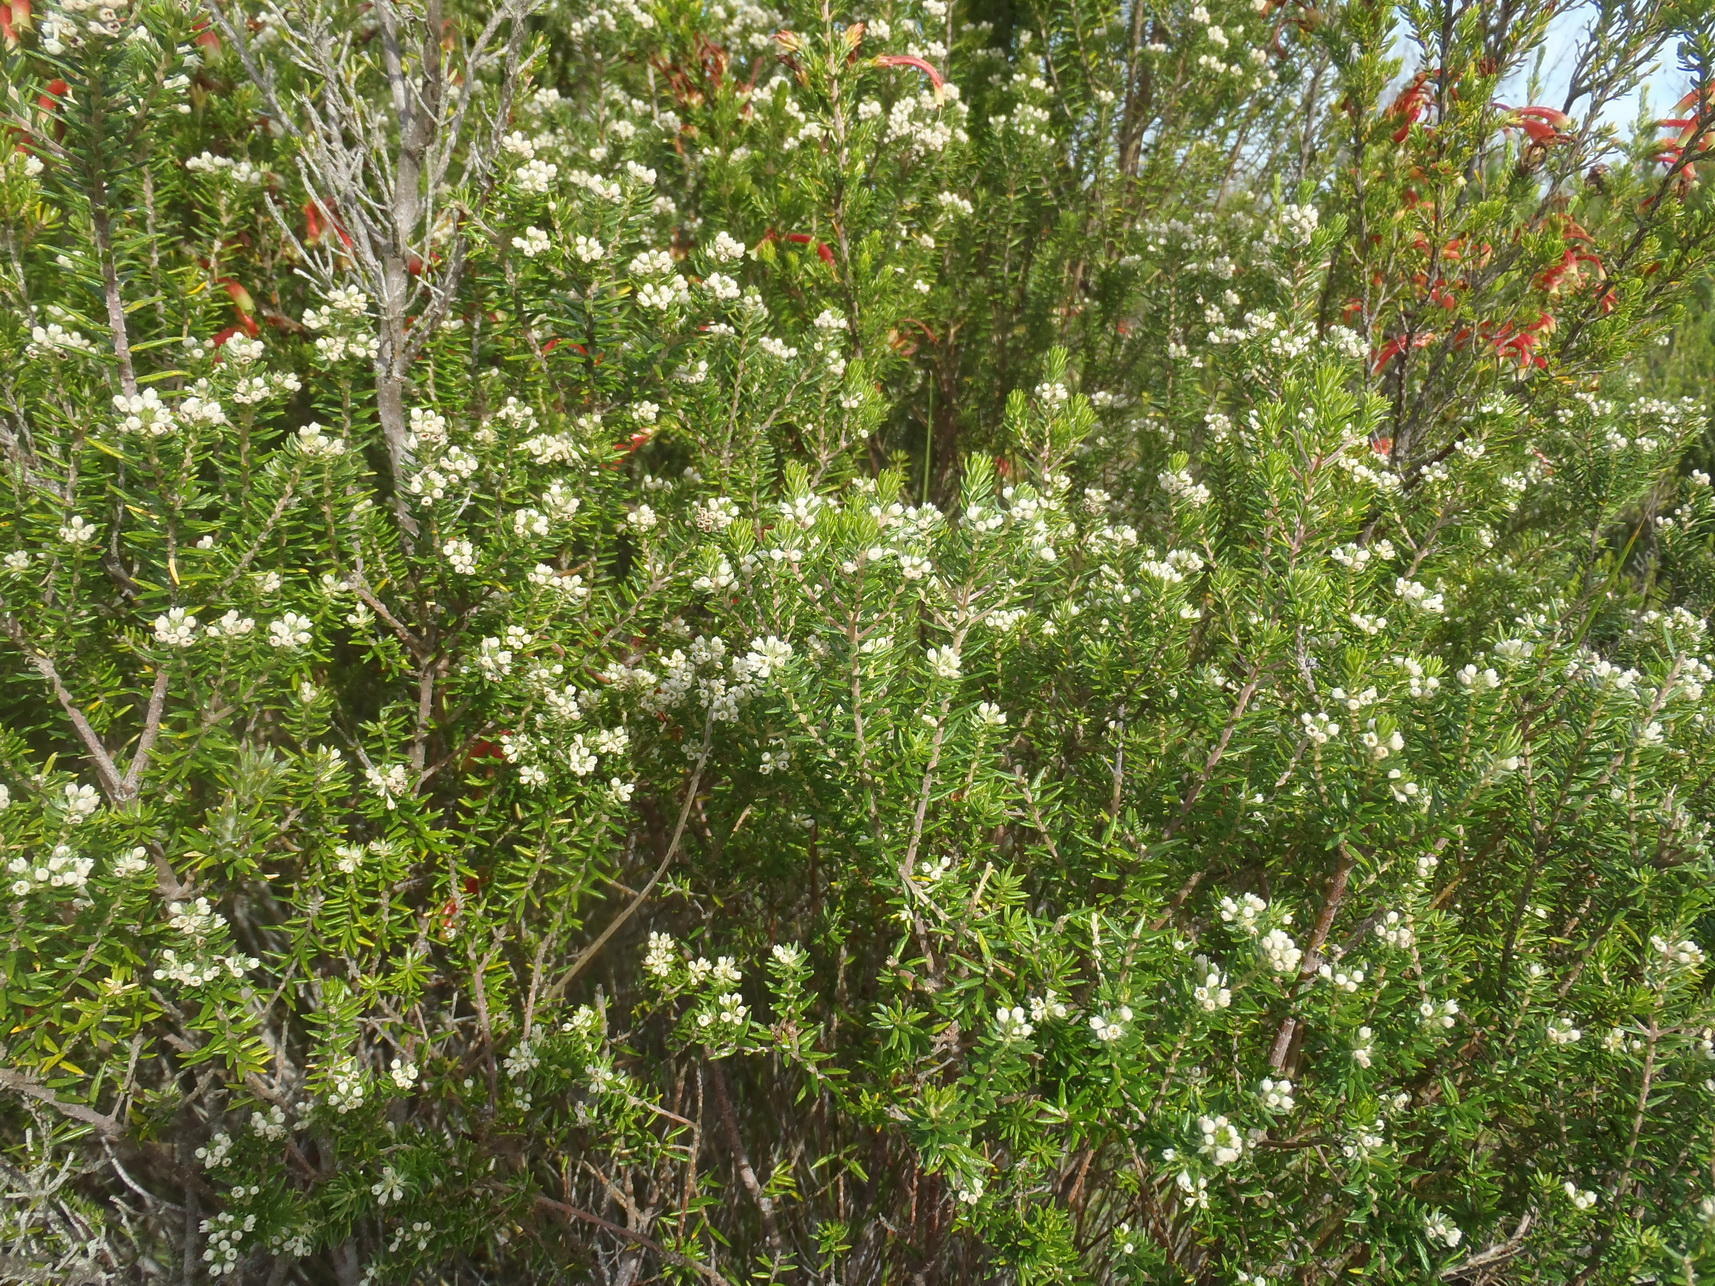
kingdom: Plantae
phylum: Tracheophyta
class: Magnoliopsida
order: Rosales
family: Rhamnaceae
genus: Phylica
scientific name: Phylica axillaris
